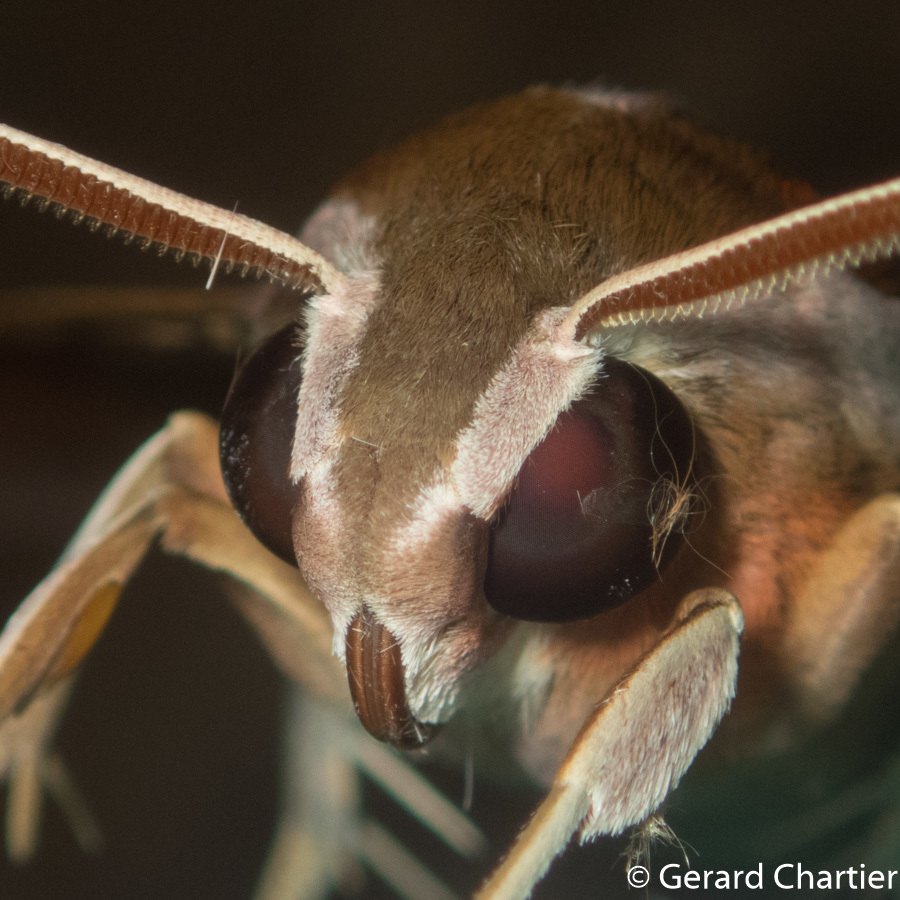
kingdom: Animalia
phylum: Arthropoda
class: Insecta
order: Lepidoptera
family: Sphingidae
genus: Theretra
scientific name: Theretra suffusa
